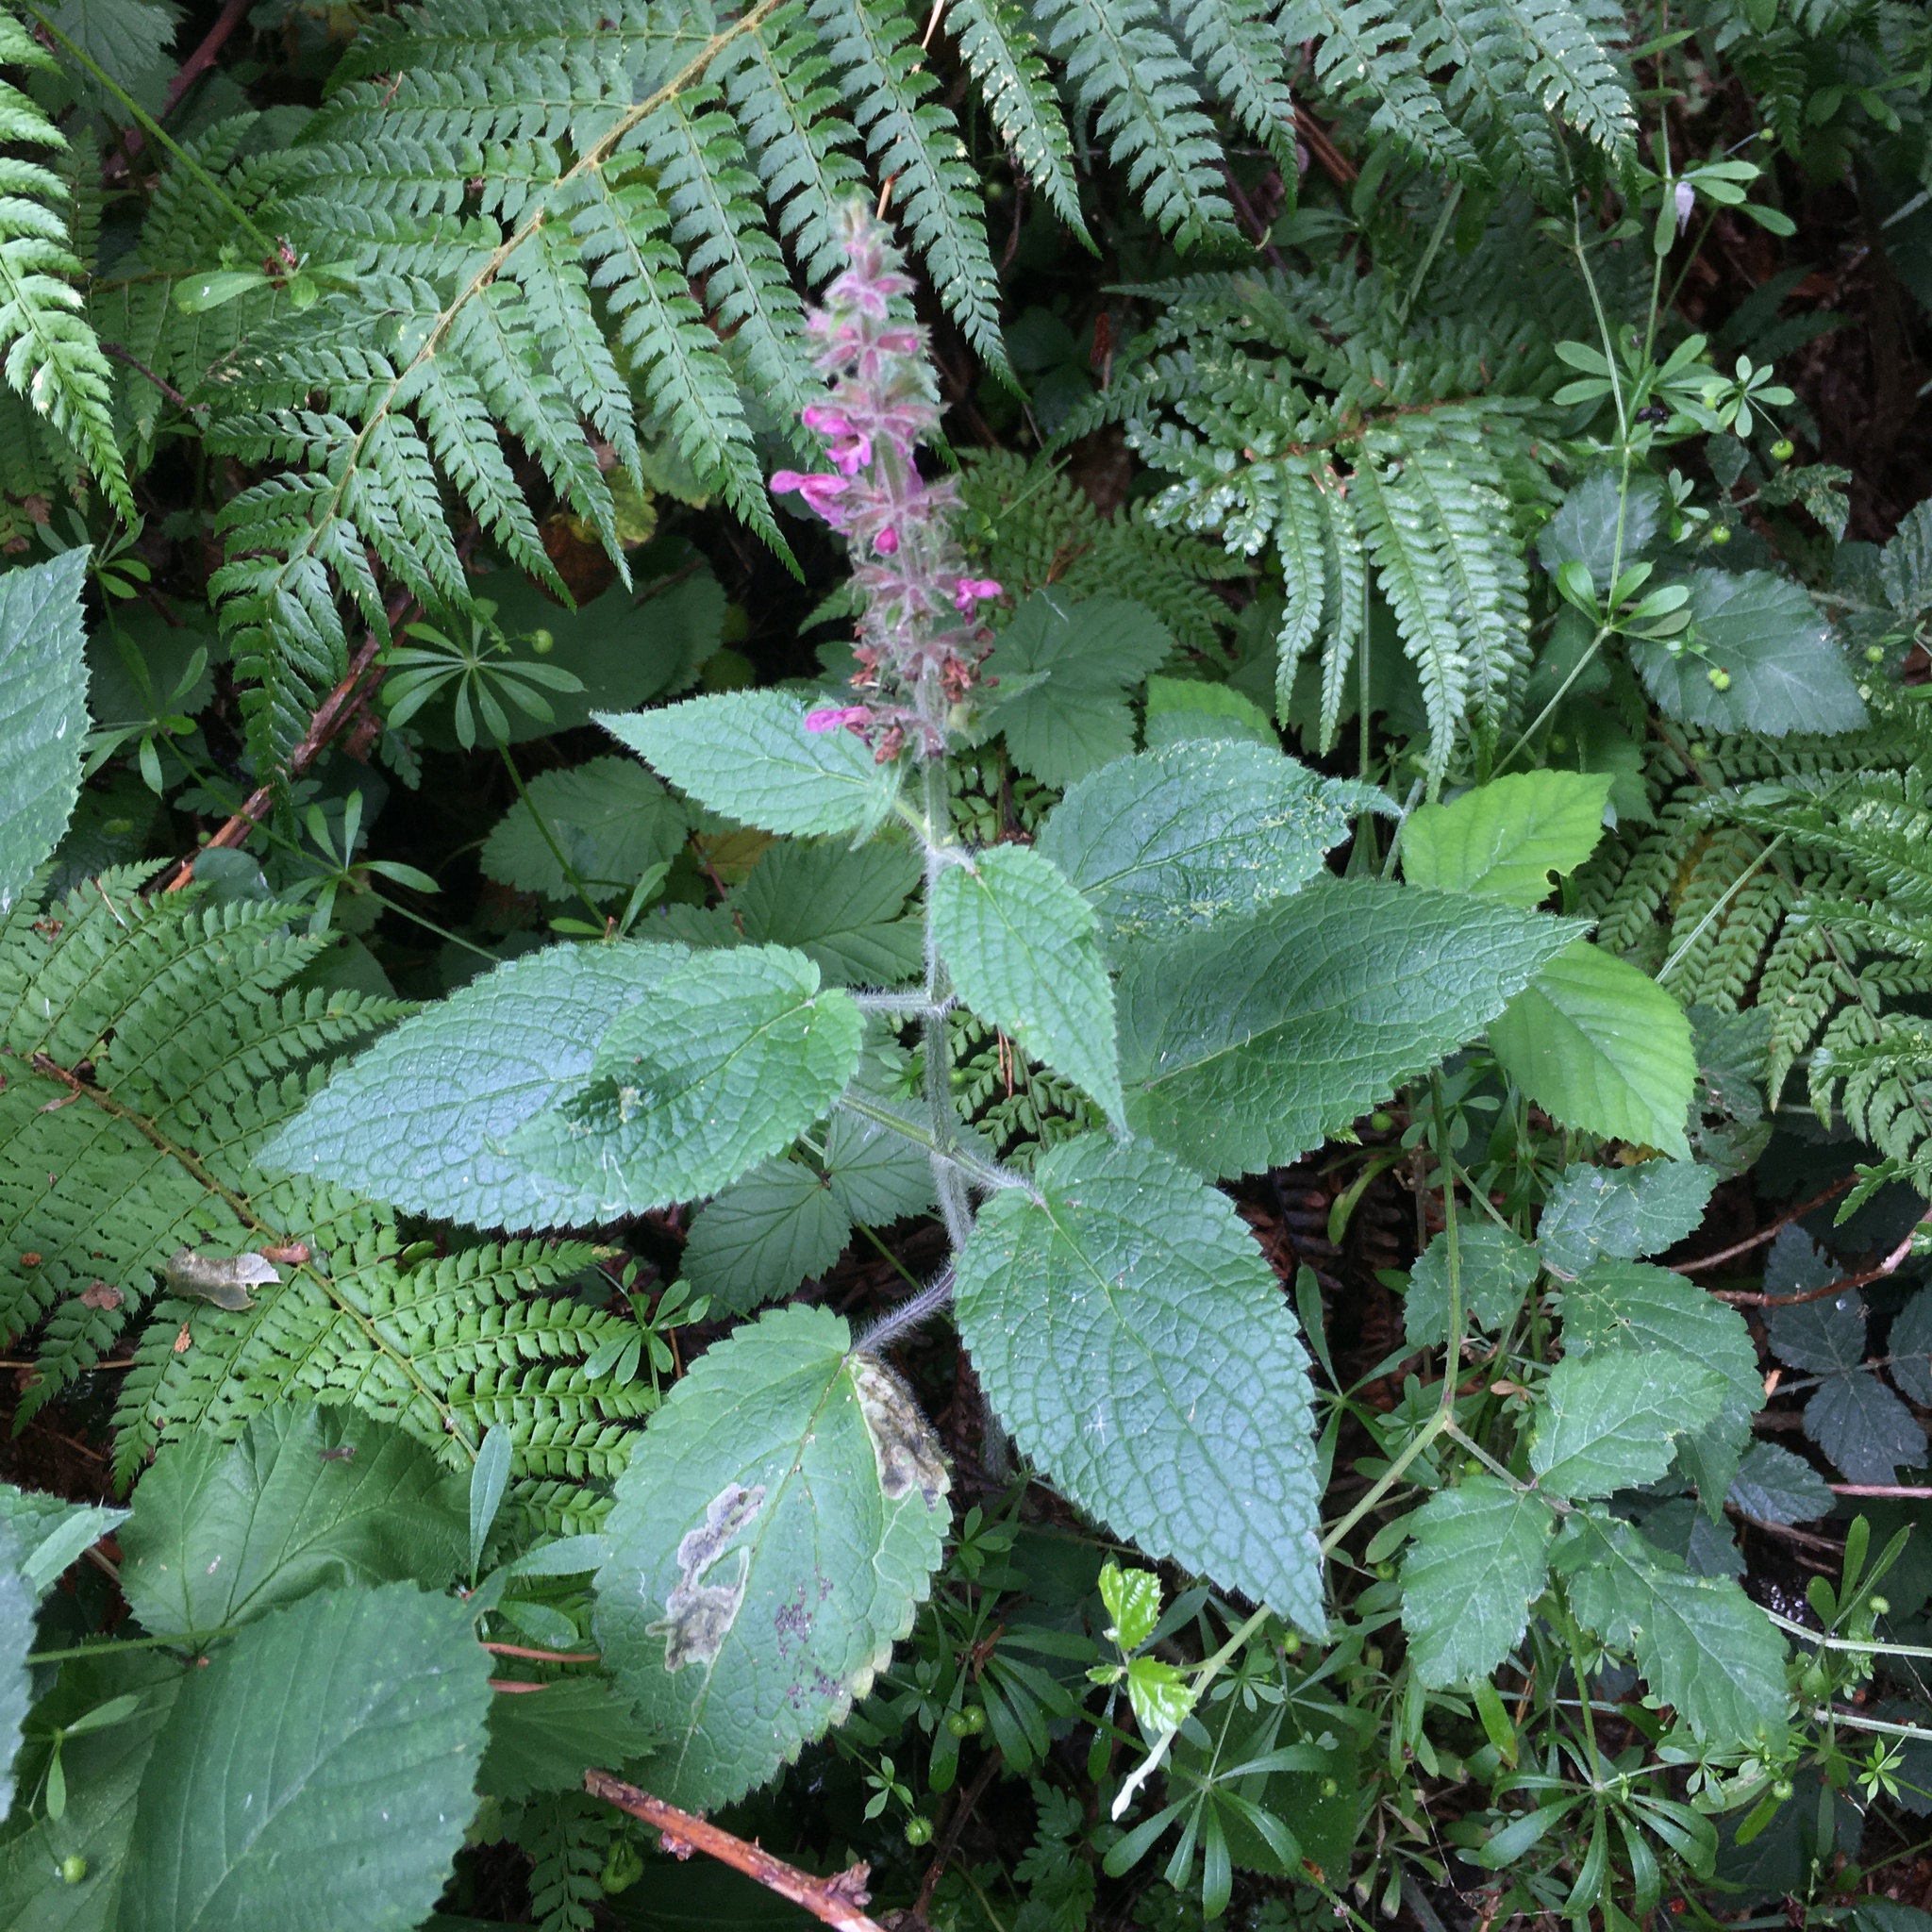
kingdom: Plantae
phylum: Tracheophyta
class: Magnoliopsida
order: Lamiales
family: Lamiaceae
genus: Stachys
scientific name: Stachys sylvatica
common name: Hedge woundwort
